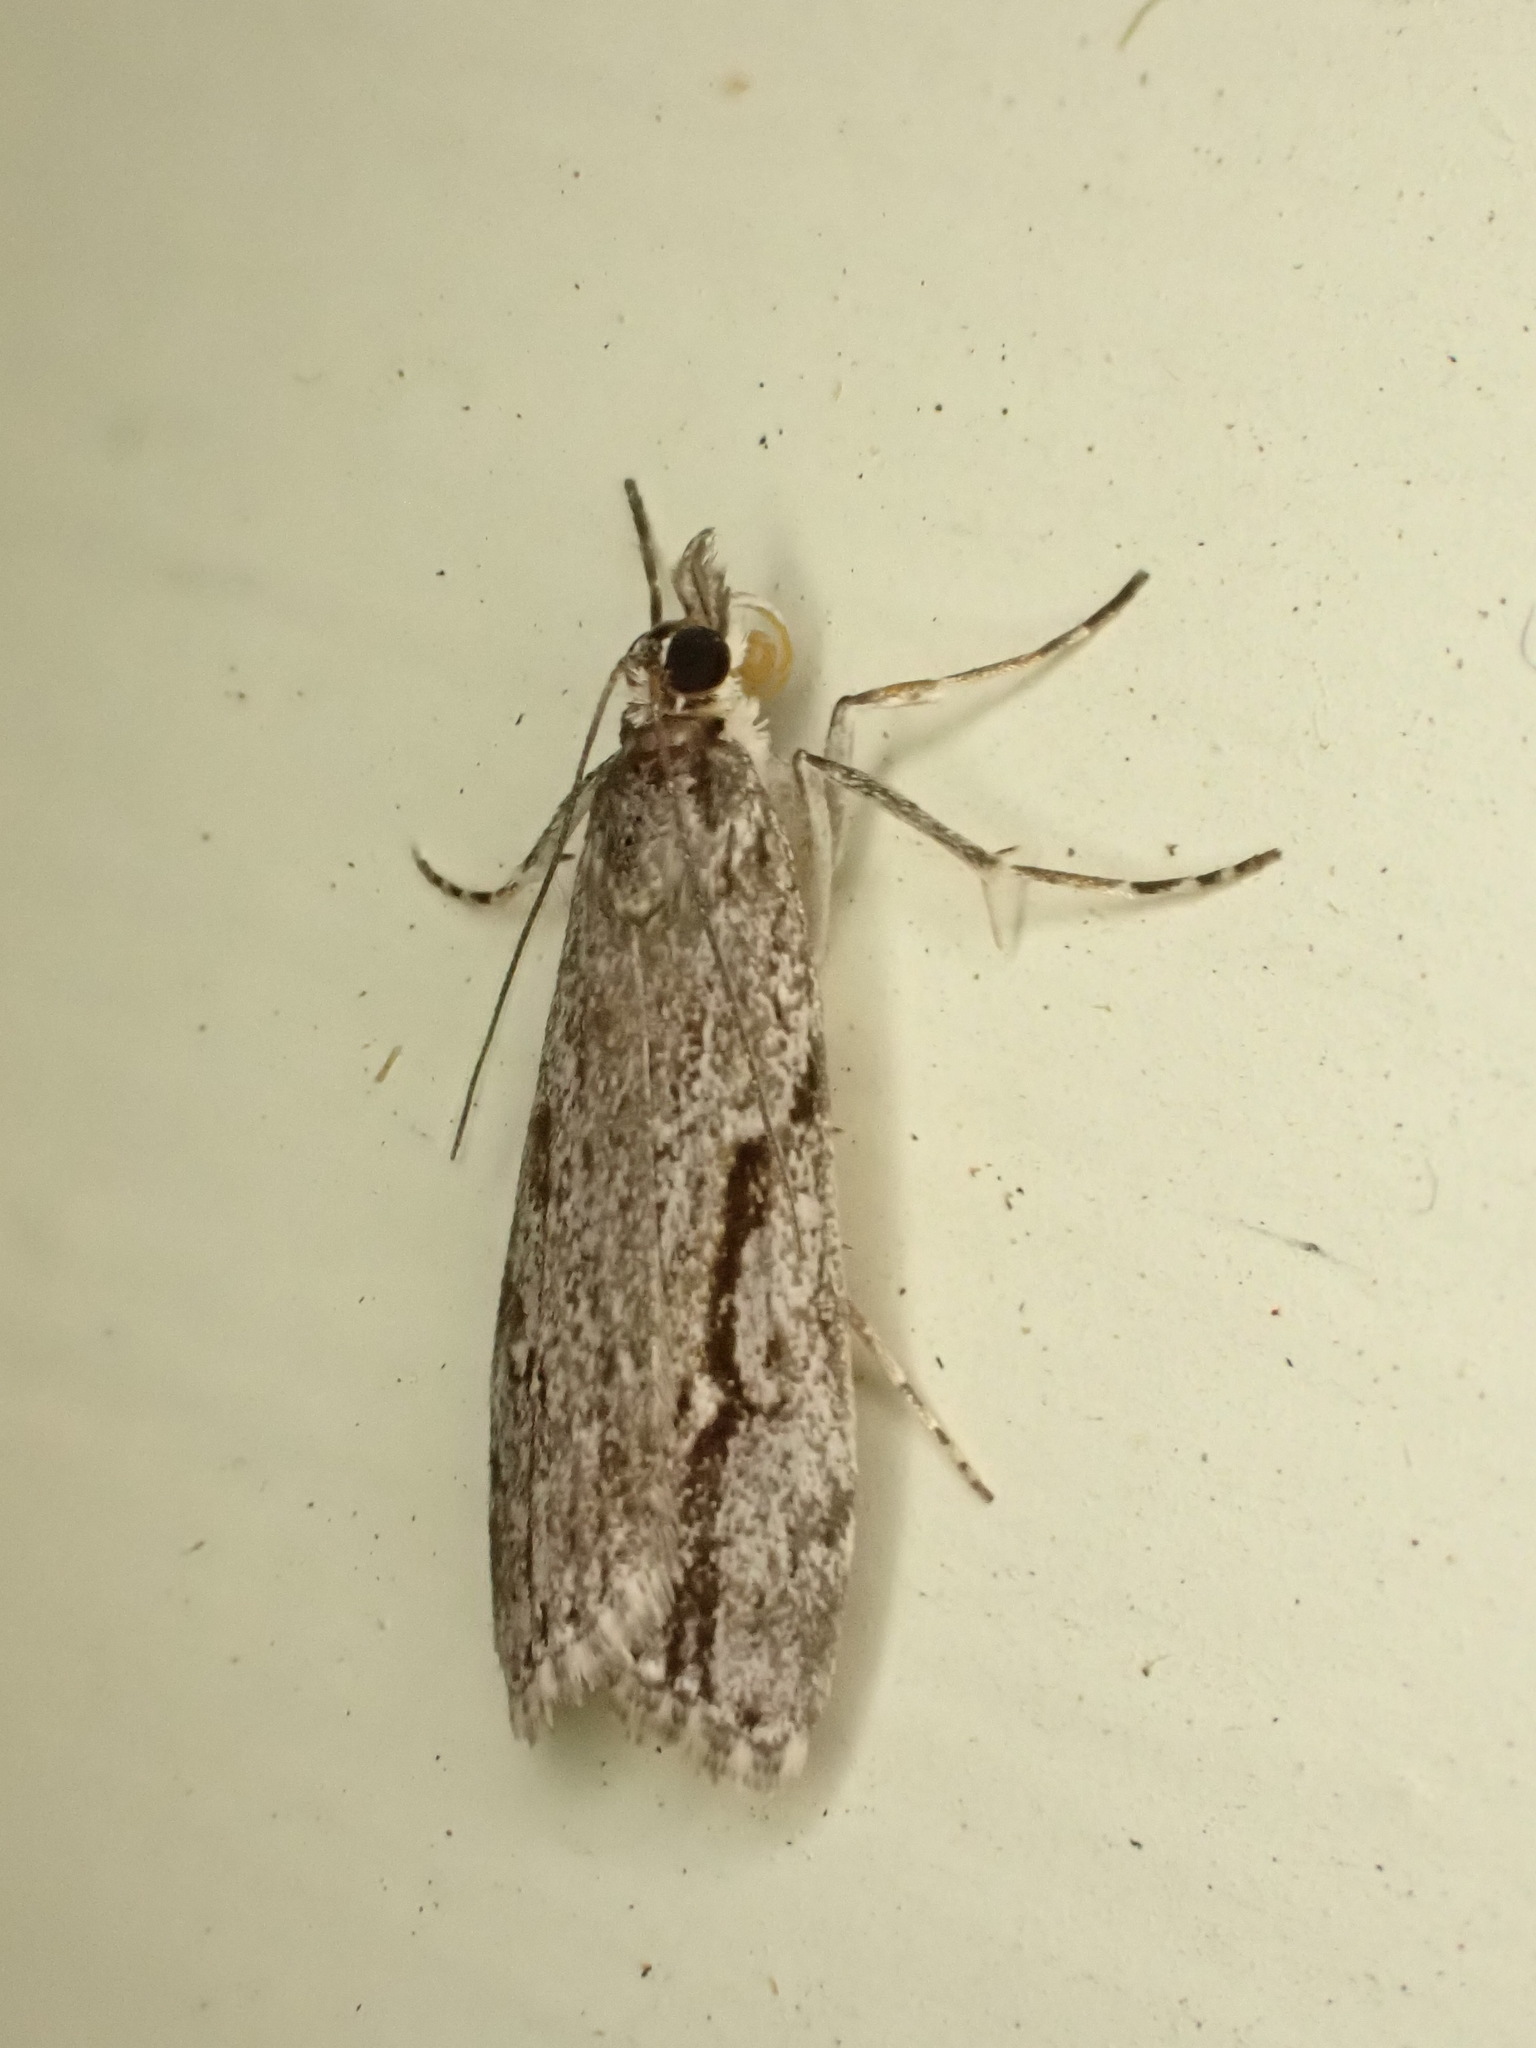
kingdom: Animalia
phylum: Arthropoda
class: Insecta
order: Lepidoptera
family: Crambidae
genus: Eudonia
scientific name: Eudonia bisinualis
